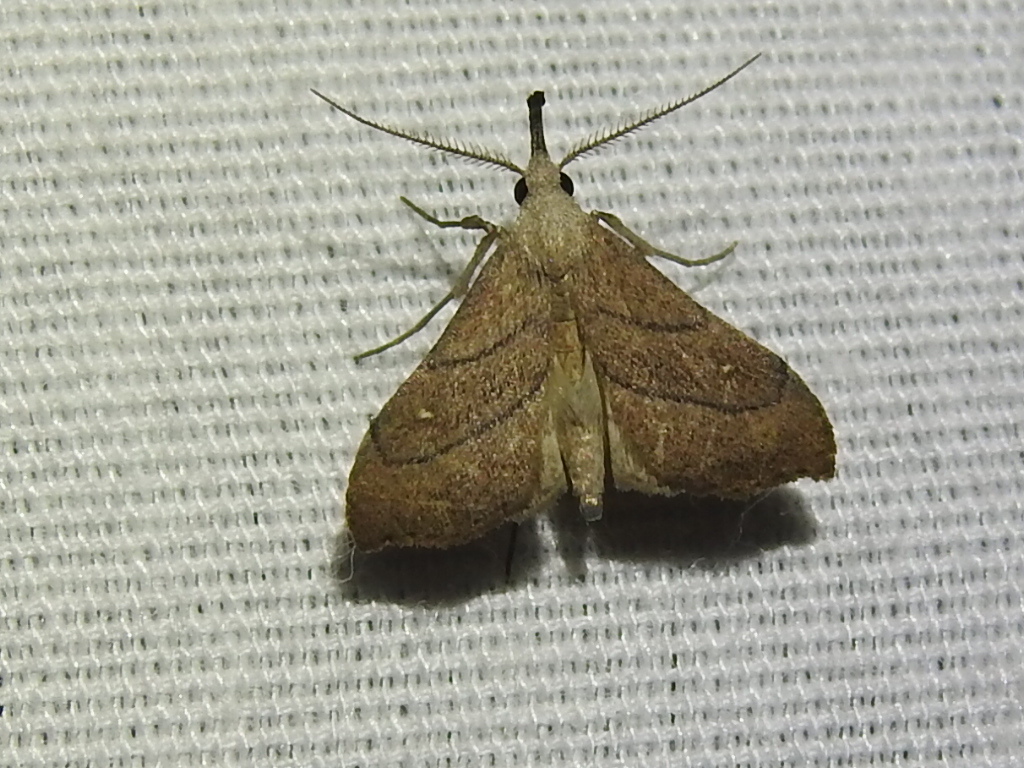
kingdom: Animalia
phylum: Arthropoda
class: Insecta
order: Lepidoptera
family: Erebidae
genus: Macristis
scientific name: Macristis schausi
